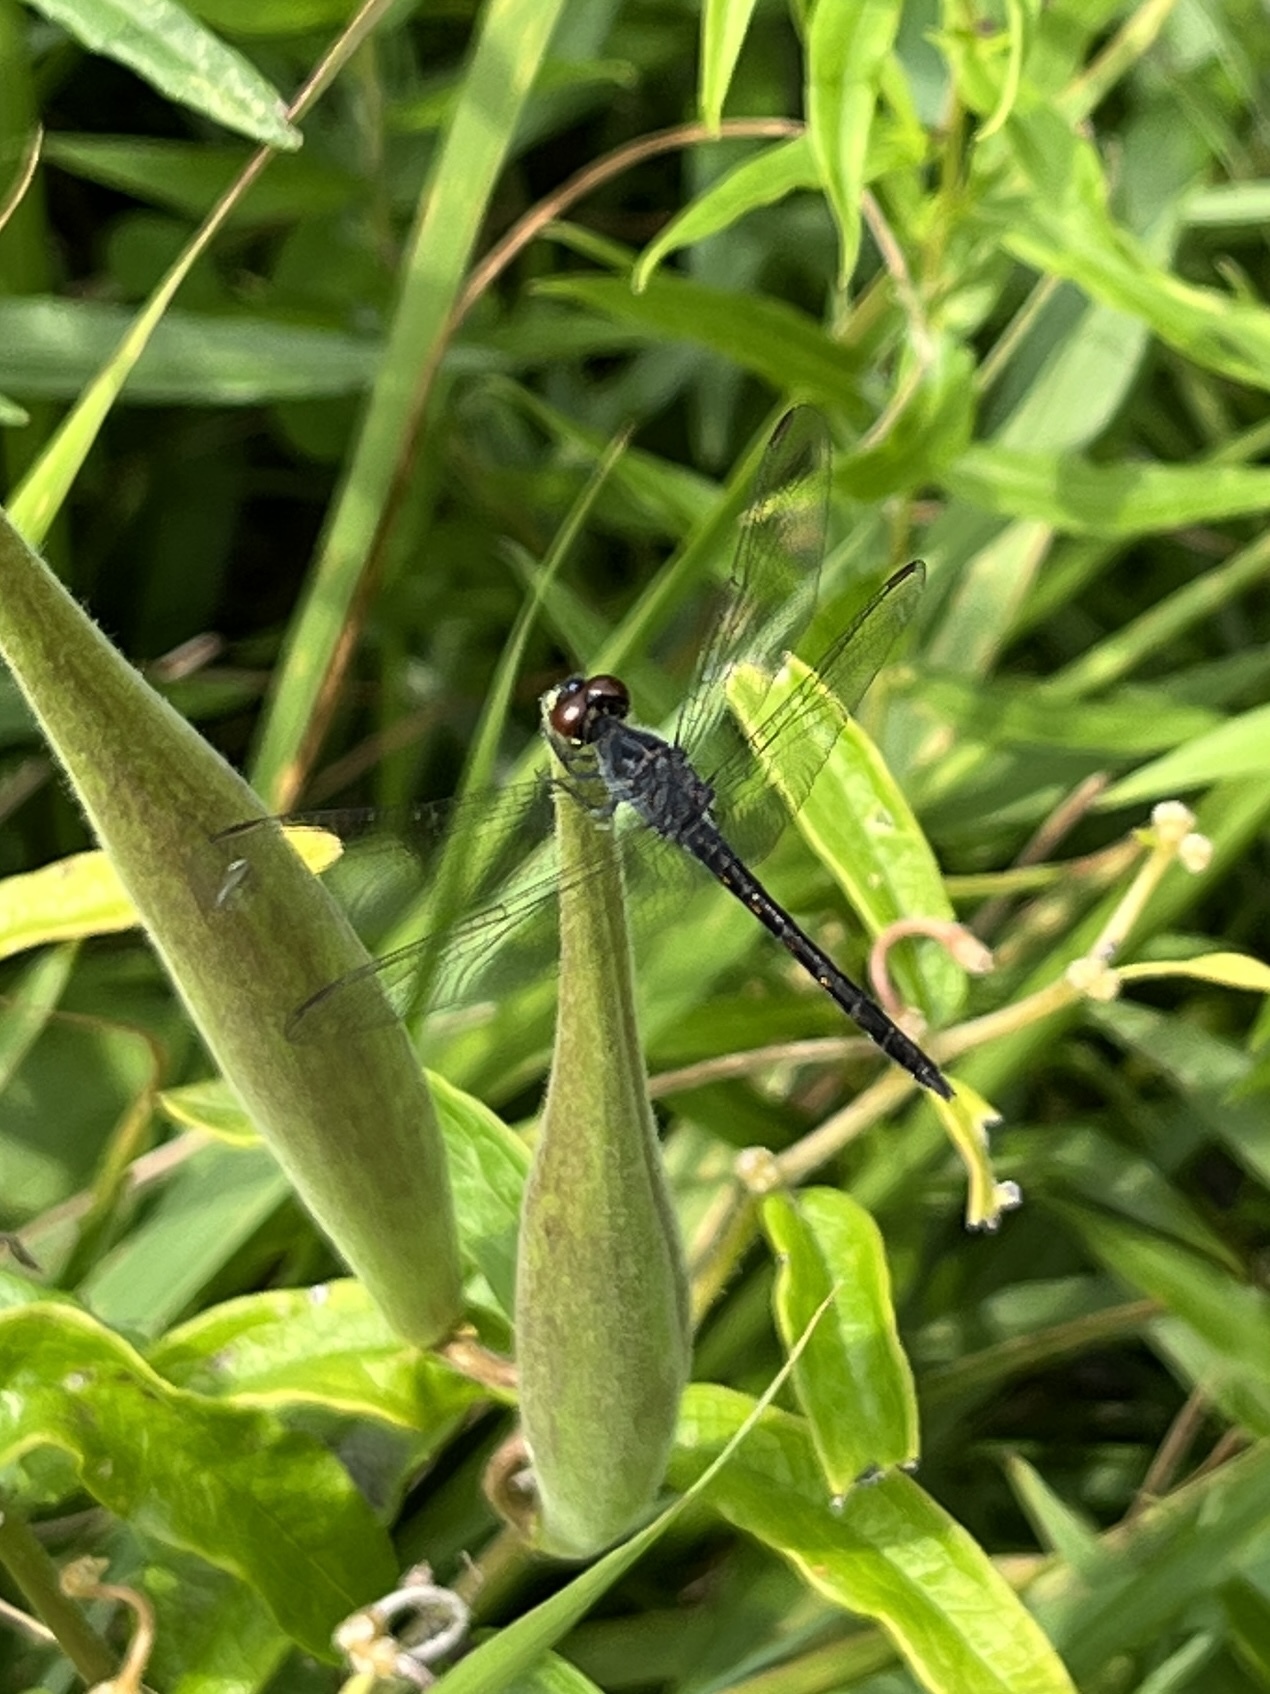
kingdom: Animalia
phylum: Arthropoda
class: Insecta
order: Odonata
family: Libellulidae
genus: Erythrodiplax
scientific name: Erythrodiplax berenice
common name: Seaside dragonlet
